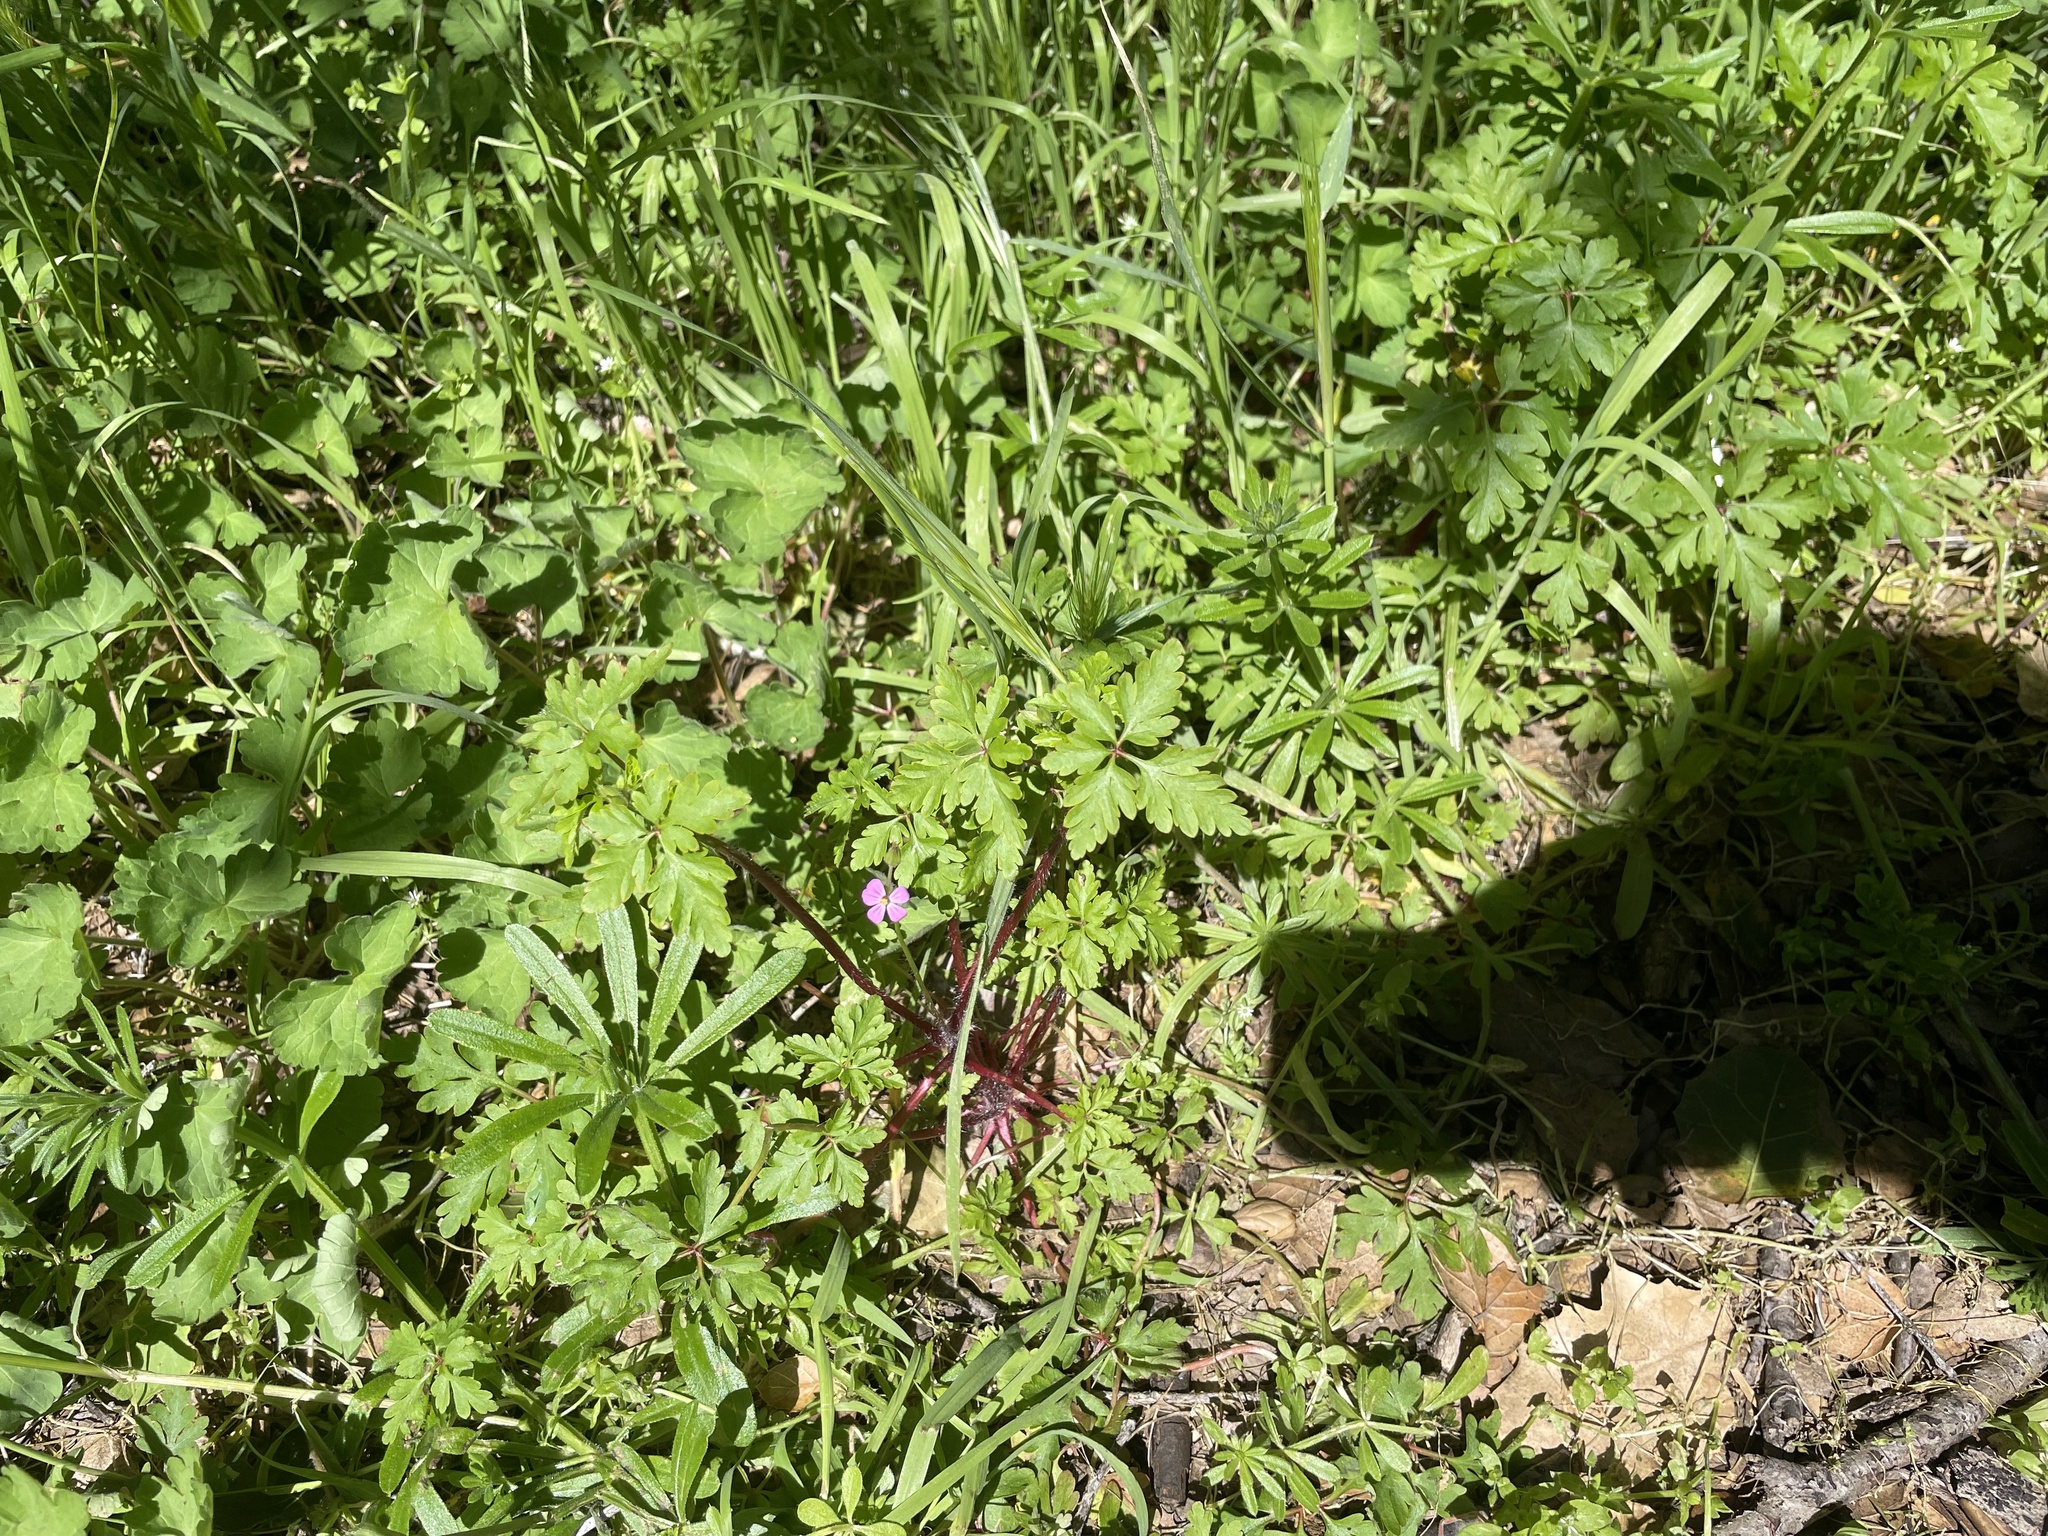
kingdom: Plantae
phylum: Tracheophyta
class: Magnoliopsida
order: Geraniales
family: Geraniaceae
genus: Geranium
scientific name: Geranium purpureum
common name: Little-robin
